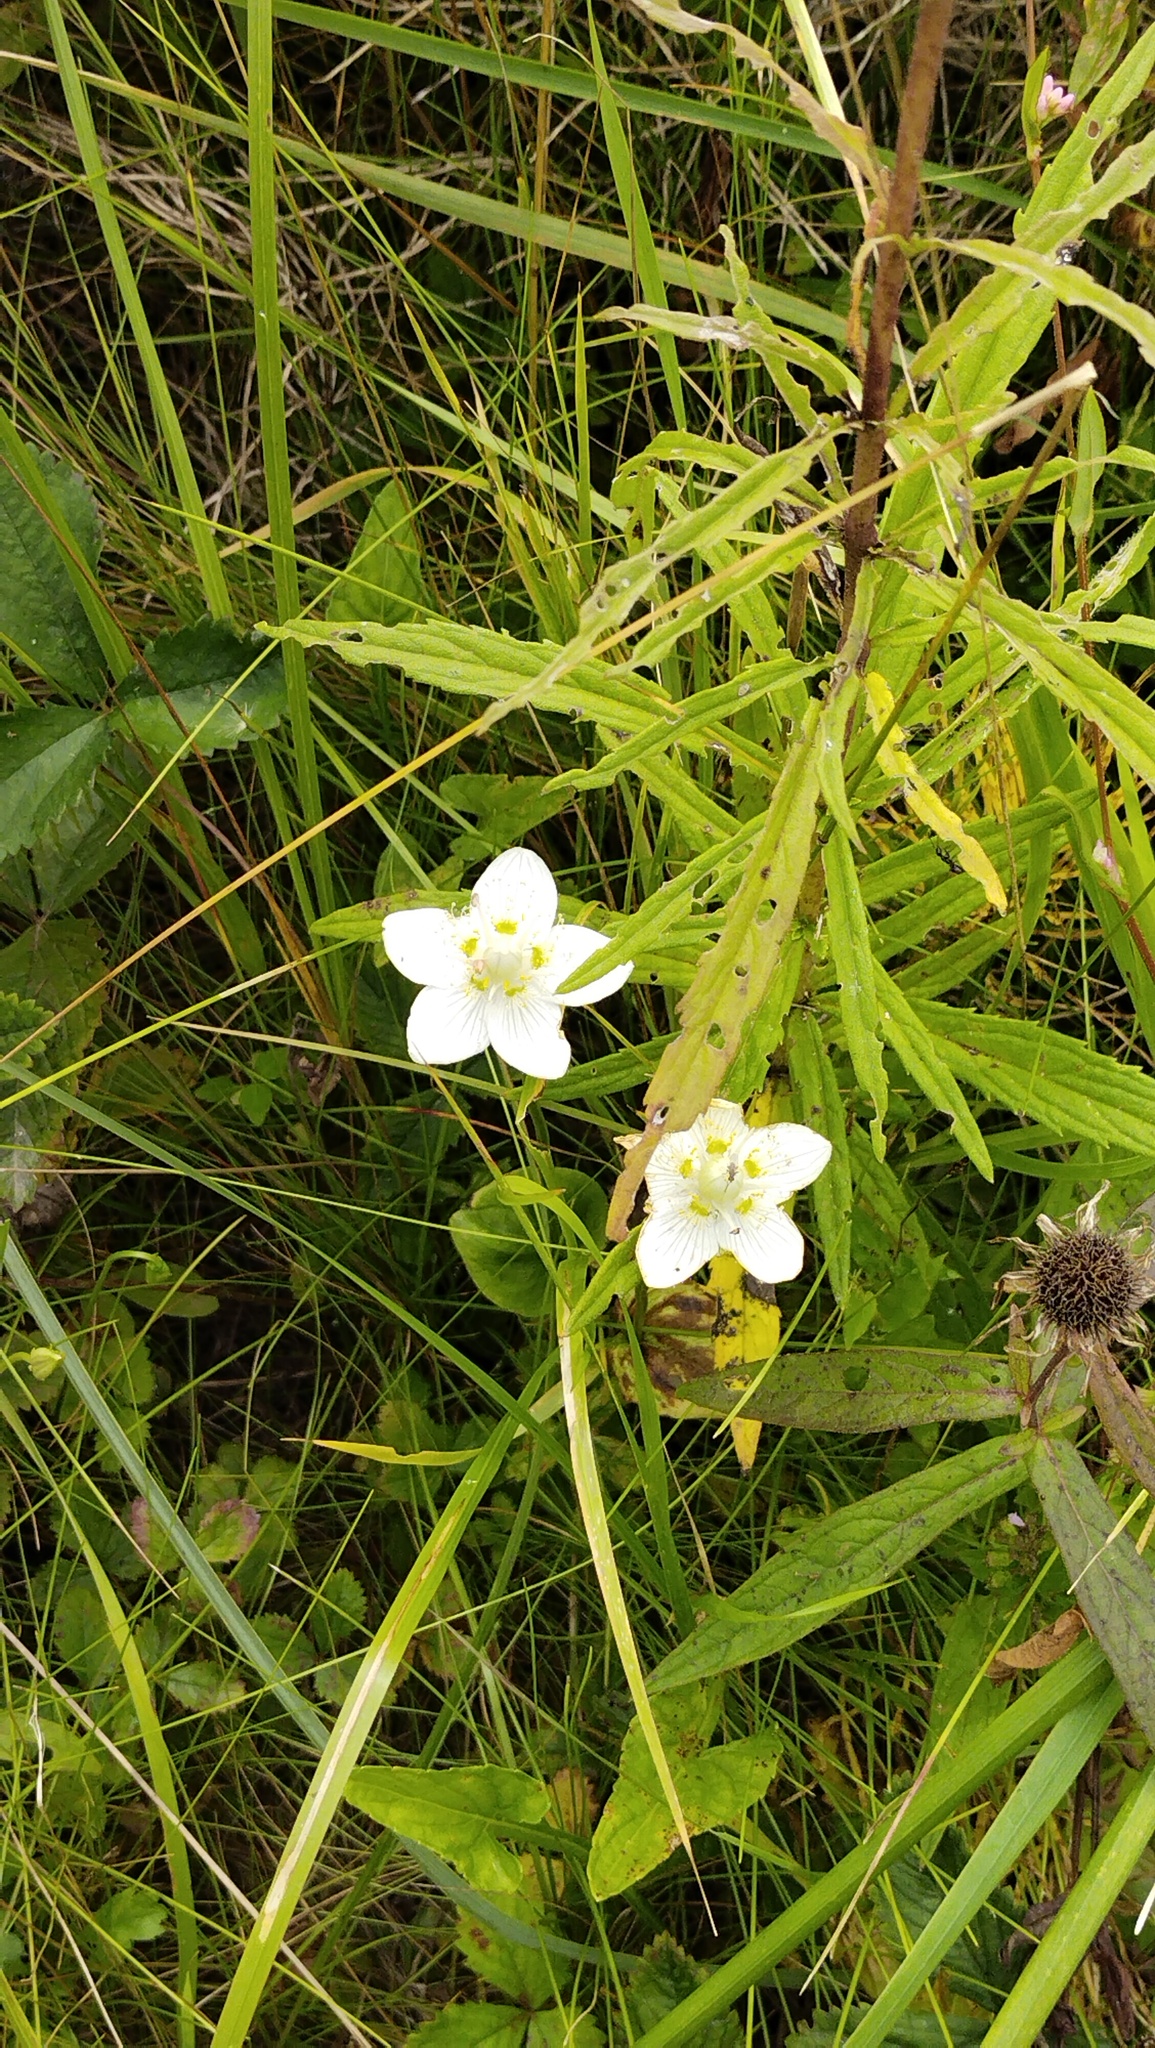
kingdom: Plantae
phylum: Tracheophyta
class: Magnoliopsida
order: Celastrales
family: Parnassiaceae
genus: Parnassia
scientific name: Parnassia palustris
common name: Grass-of-parnassus
